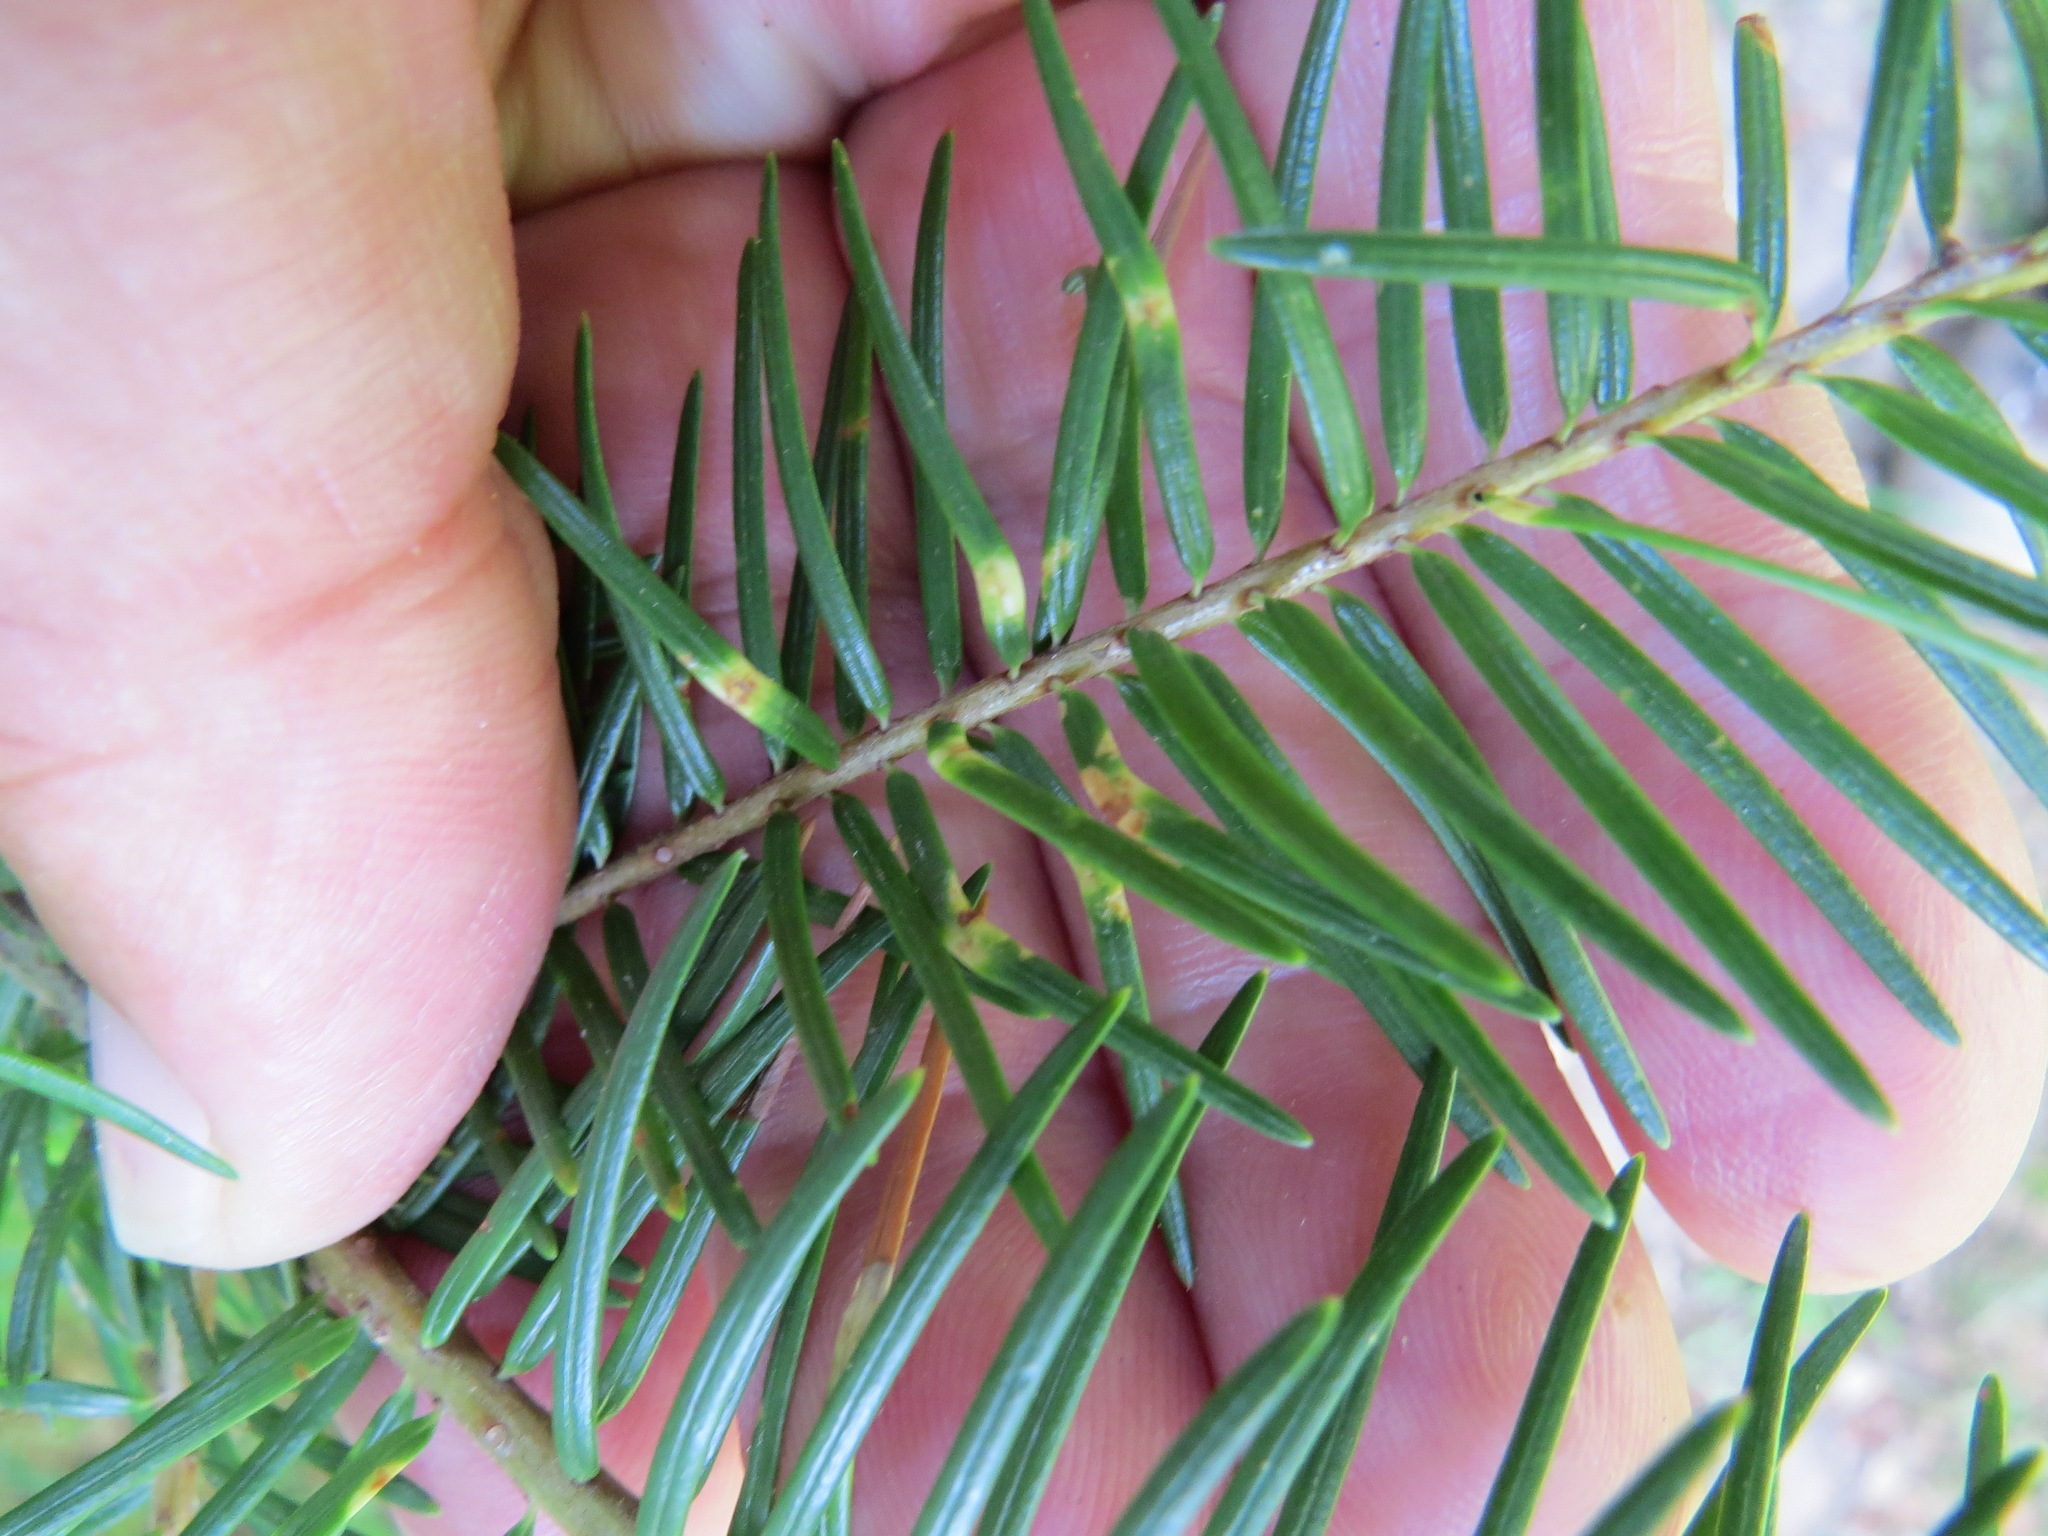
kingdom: Animalia
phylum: Arthropoda
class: Insecta
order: Diptera
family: Cecidomyiidae
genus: Contarinia
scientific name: Contarinia pseudotsugae
